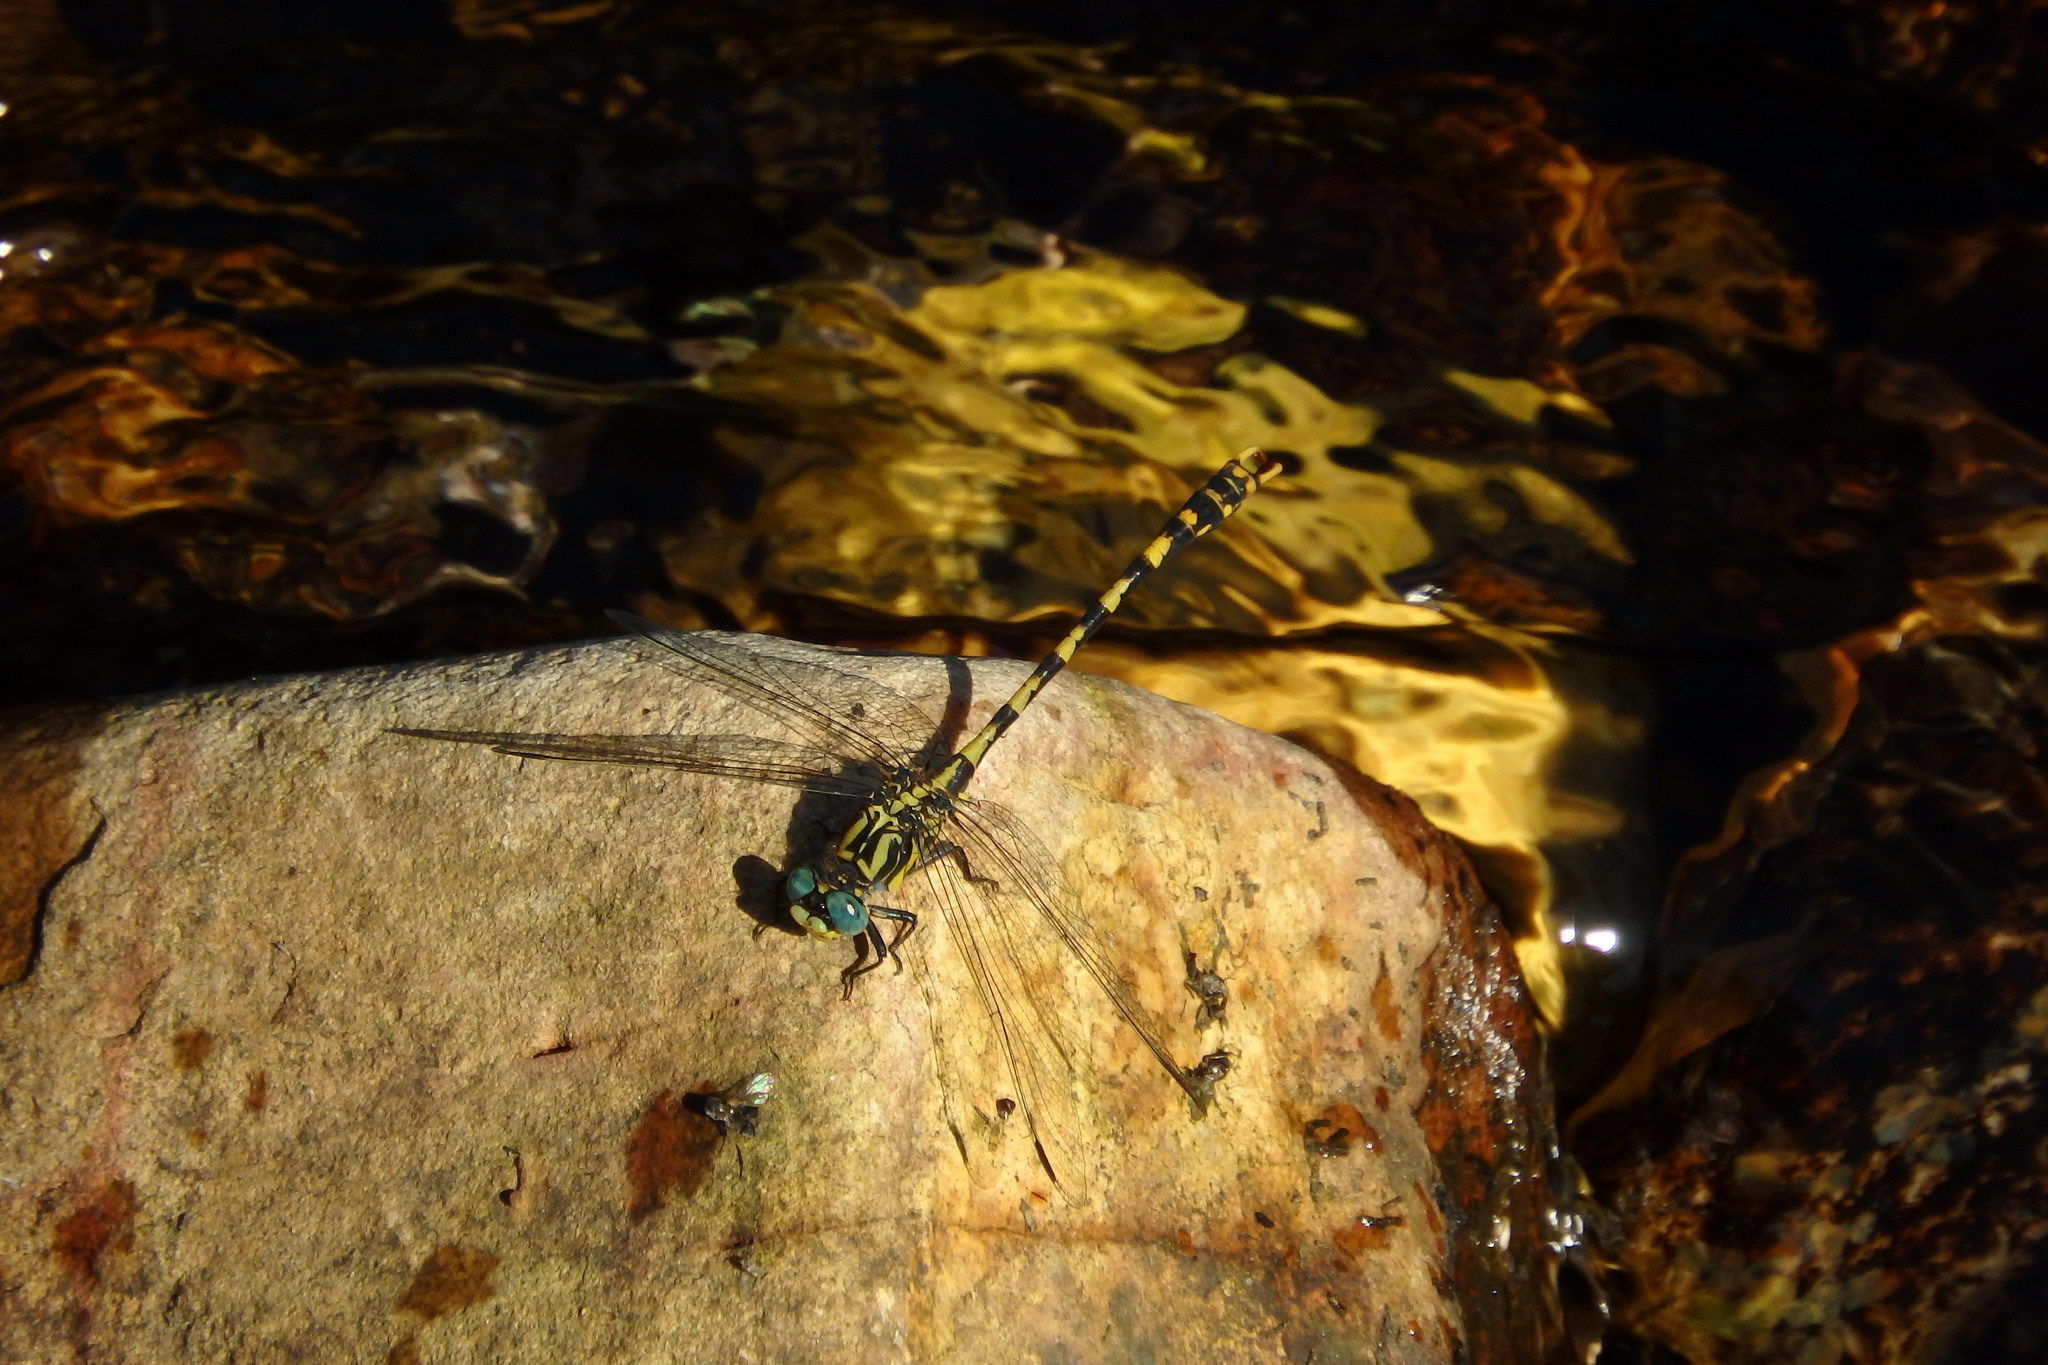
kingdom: Animalia
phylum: Arthropoda
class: Insecta
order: Odonata
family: Gomphidae
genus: Onychogomphus
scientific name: Onychogomphus uncatus
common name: Large pincertail
